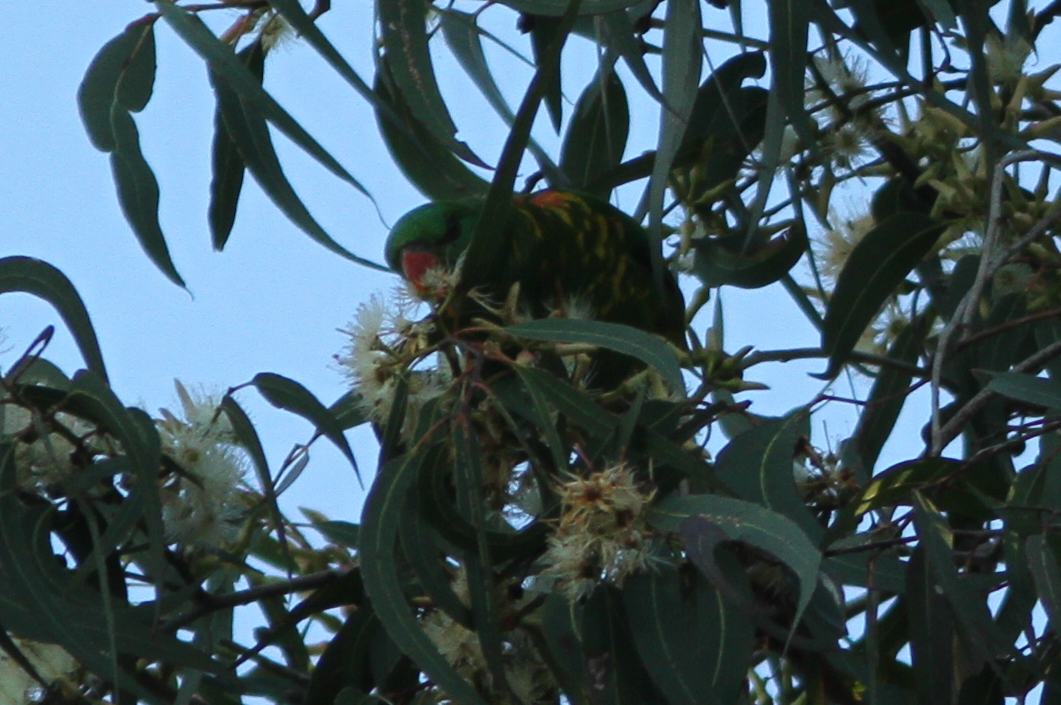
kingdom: Animalia
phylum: Chordata
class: Aves
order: Psittaciformes
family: Psittacidae
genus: Trichoglossus
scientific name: Trichoglossus chlorolepidotus
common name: Scaly-breasted lorikeet
